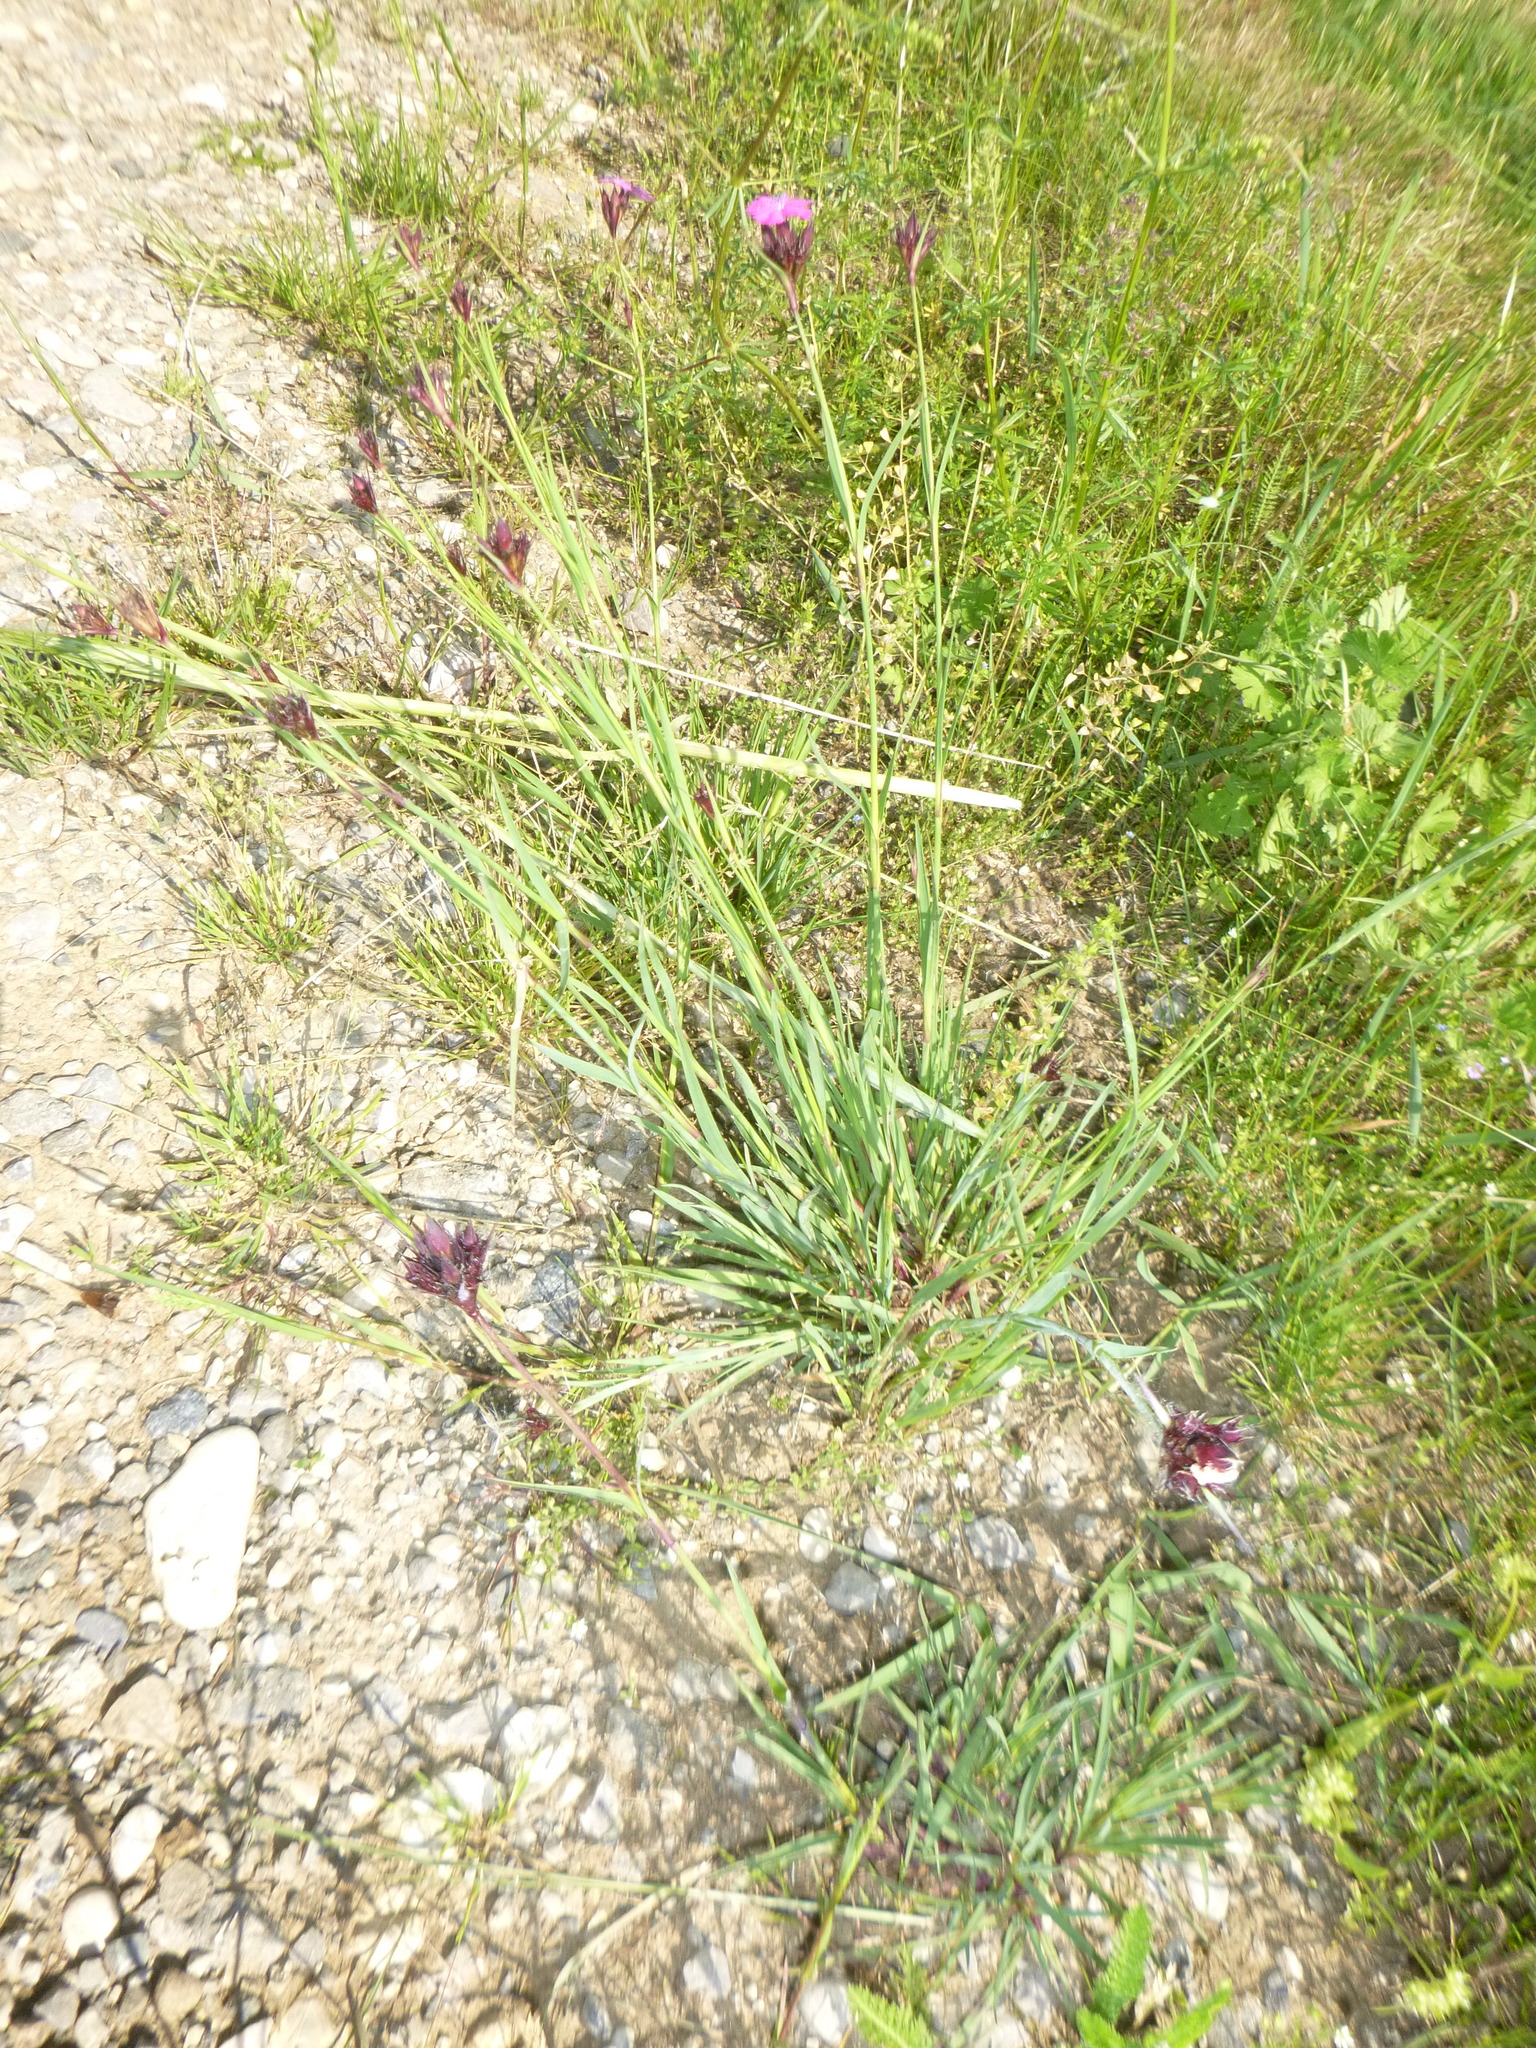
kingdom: Plantae
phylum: Tracheophyta
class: Magnoliopsida
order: Caryophyllales
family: Caryophyllaceae
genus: Dianthus
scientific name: Dianthus carthusianorum
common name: Carthusian pink
